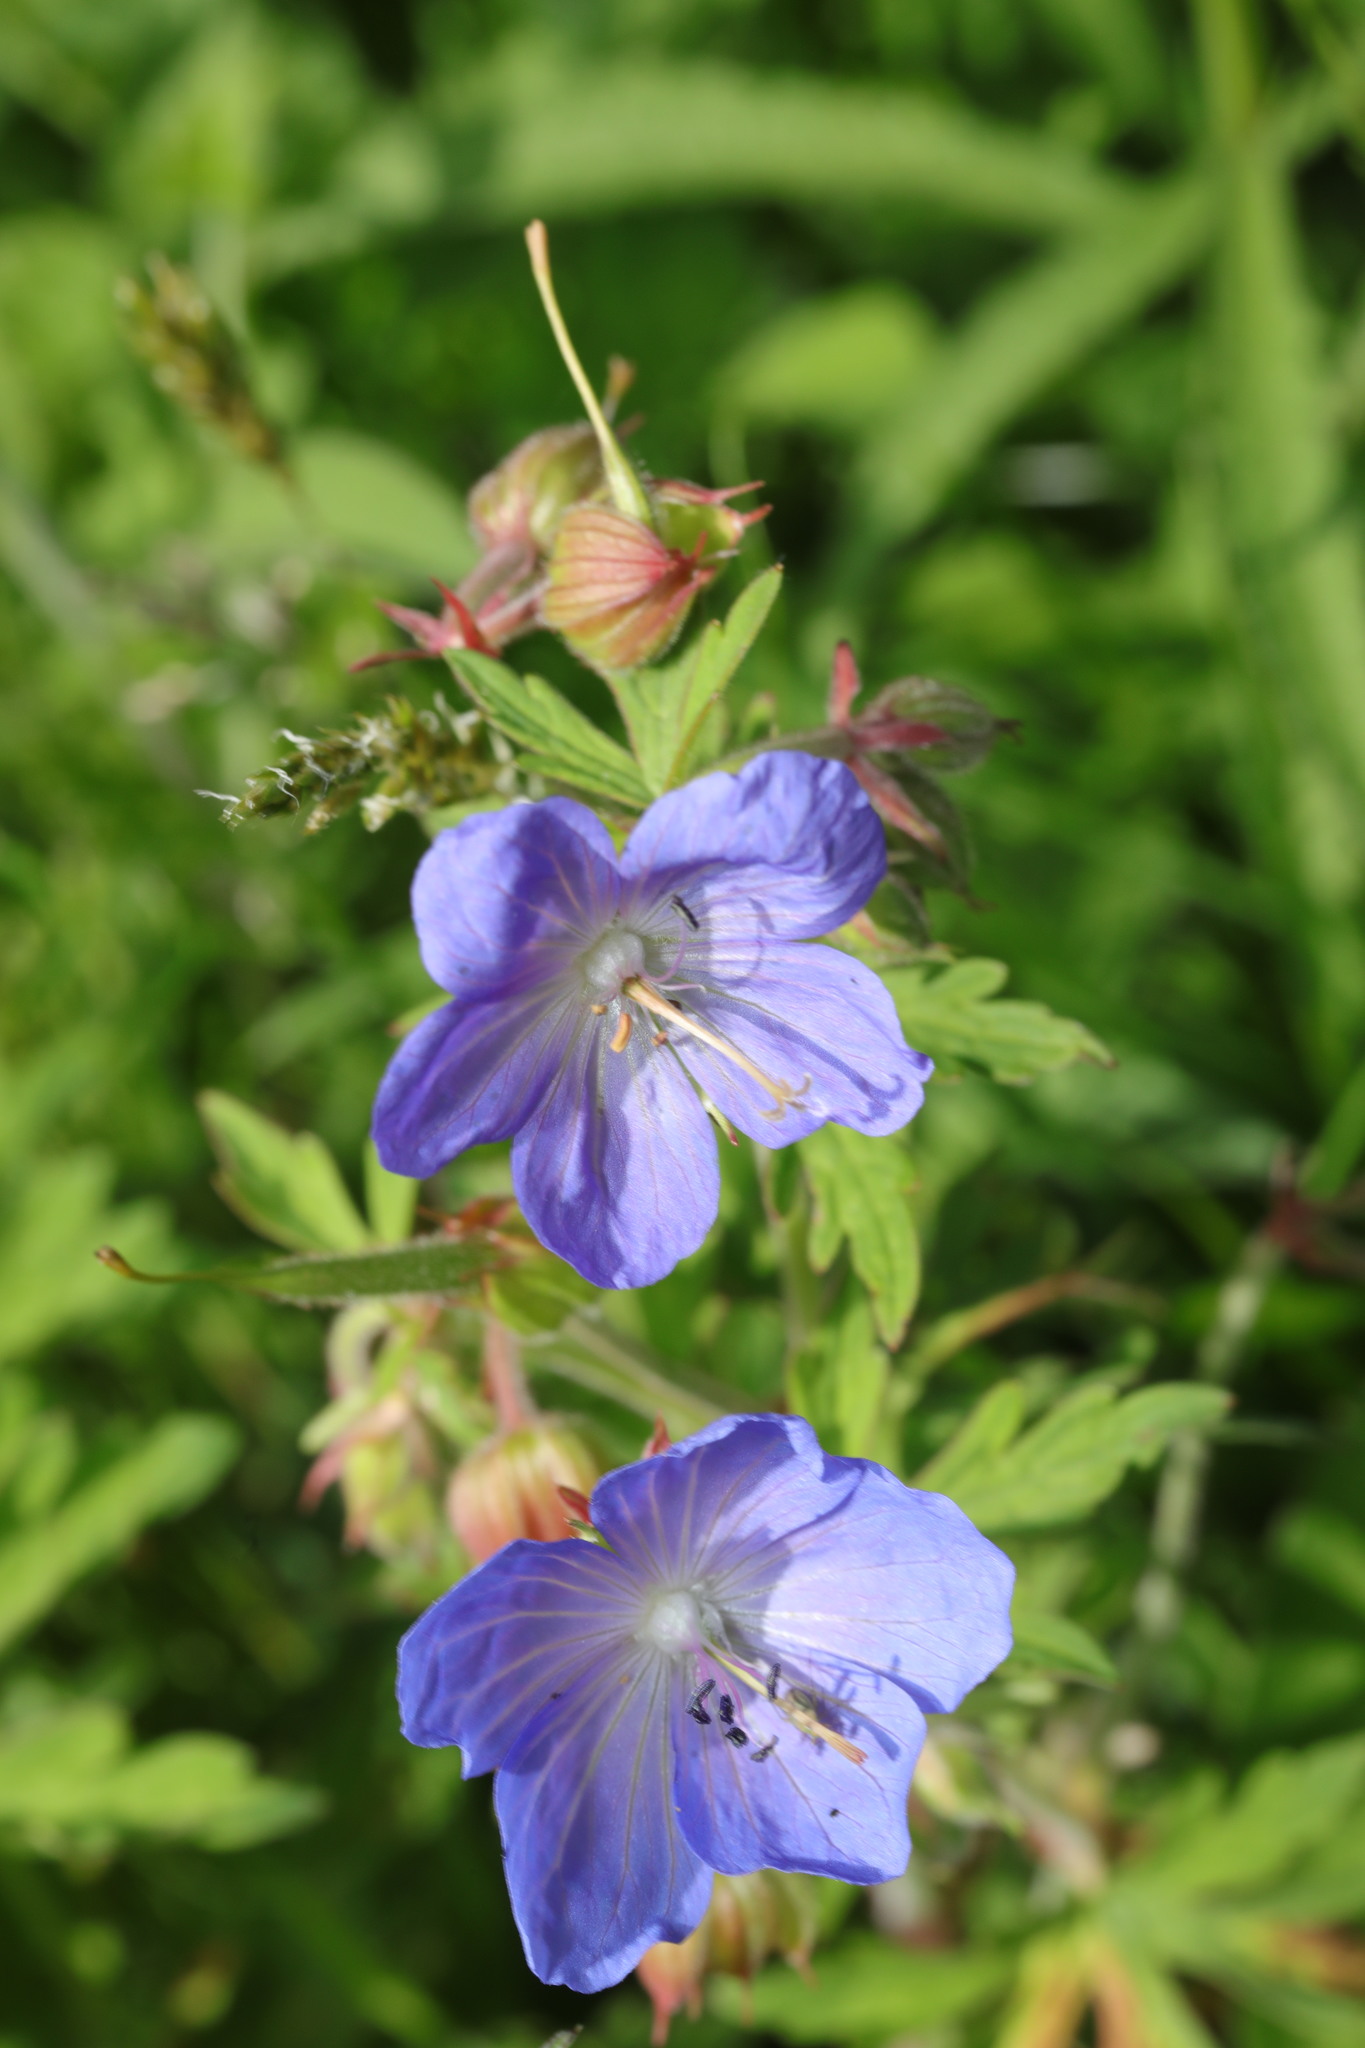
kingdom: Plantae
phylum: Tracheophyta
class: Magnoliopsida
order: Geraniales
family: Geraniaceae
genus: Geranium
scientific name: Geranium pratense
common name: Meadow crane's-bill
